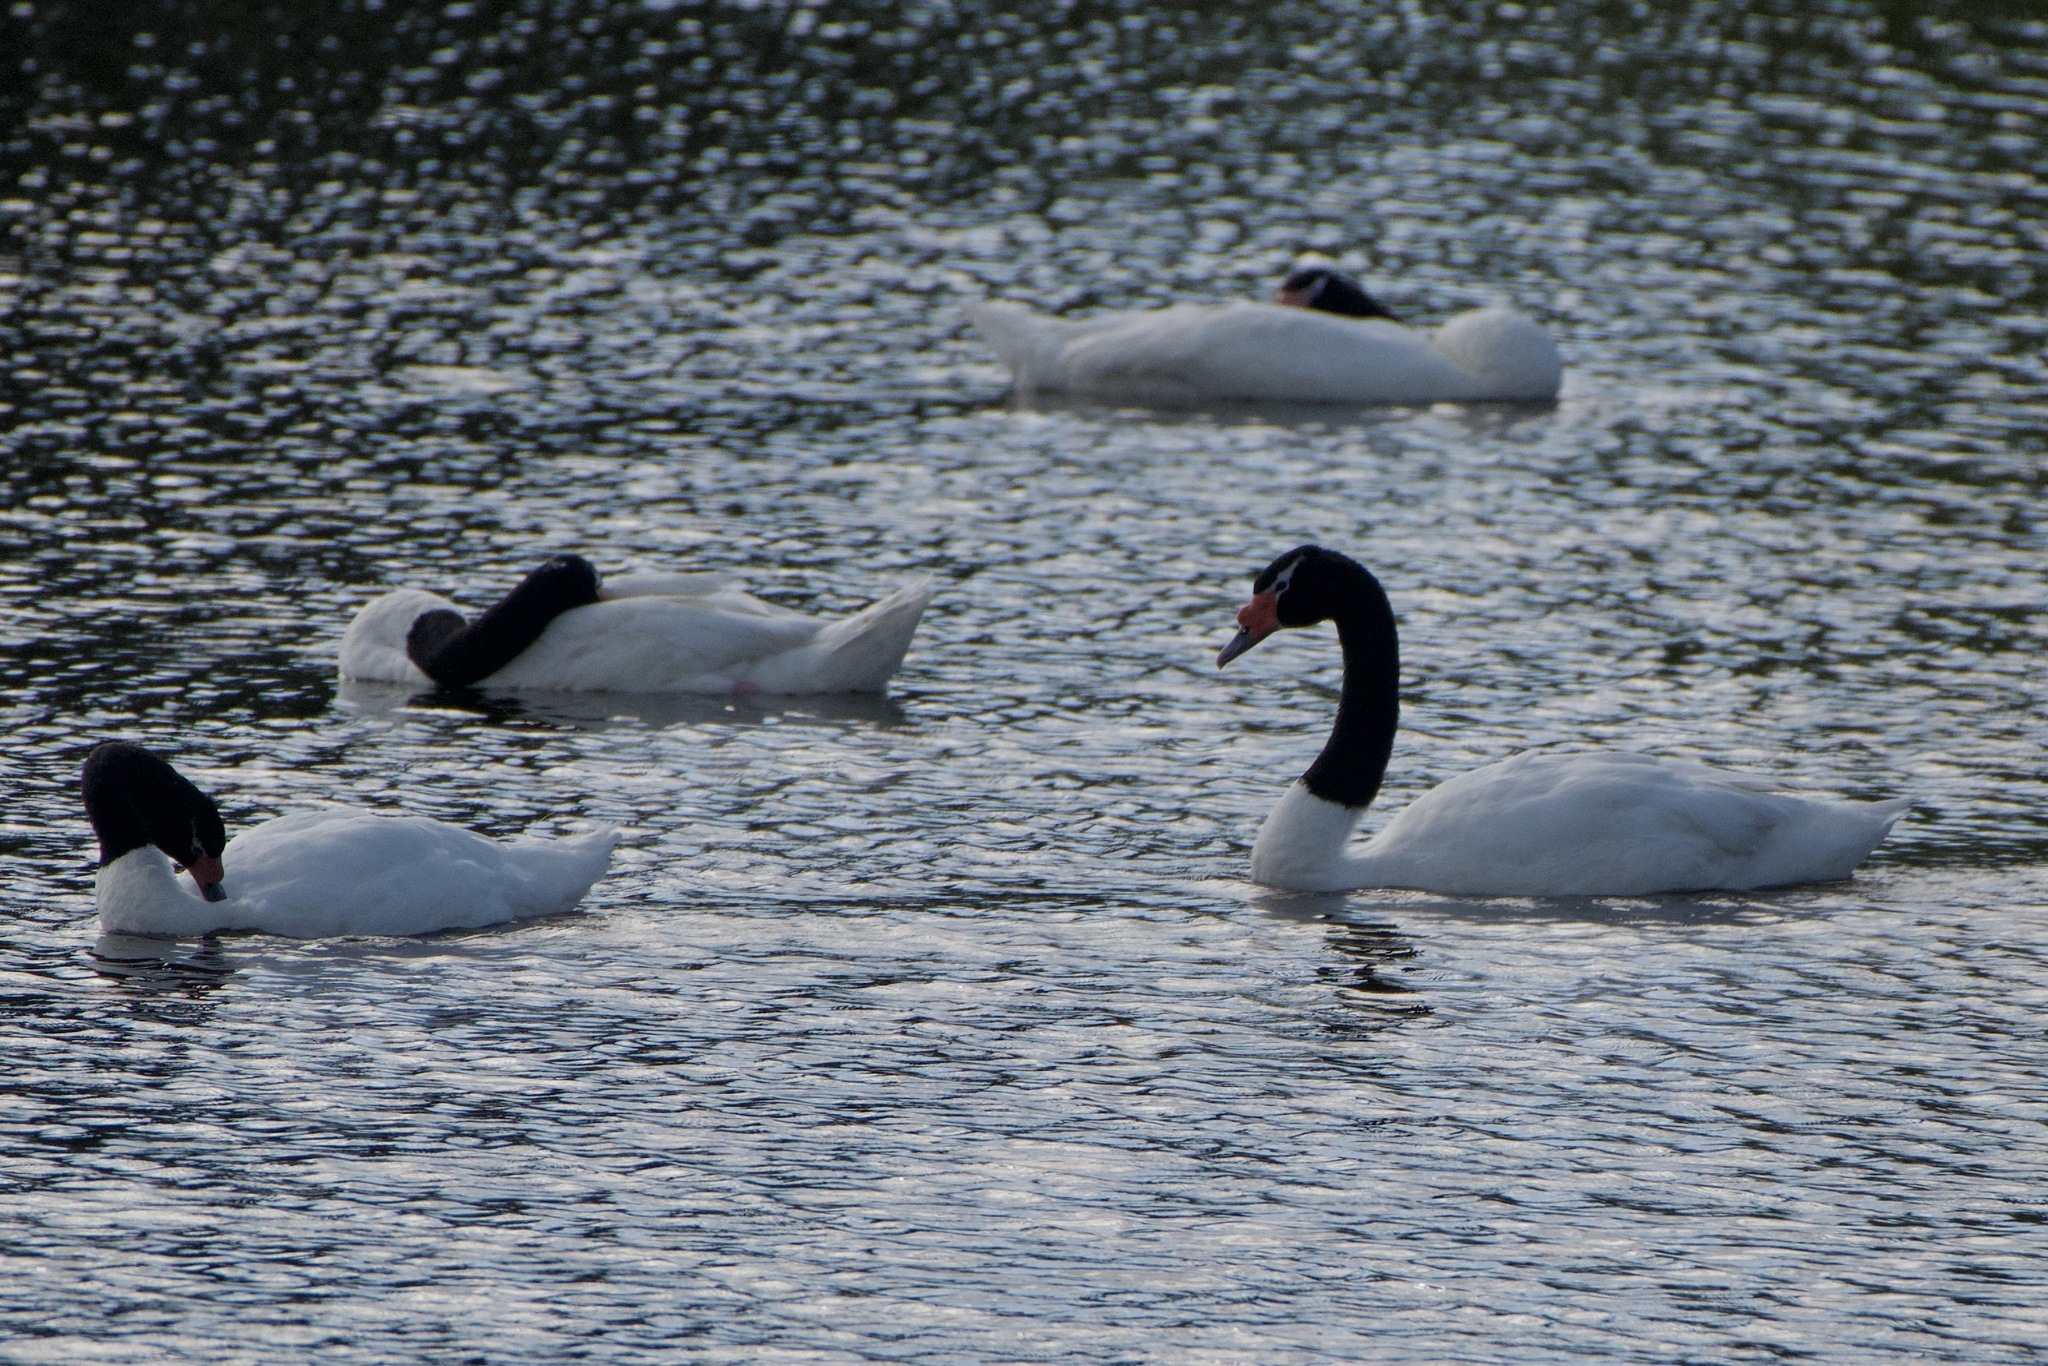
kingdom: Animalia
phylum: Chordata
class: Aves
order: Anseriformes
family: Anatidae
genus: Cygnus
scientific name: Cygnus melancoryphus
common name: Black-necked swan
